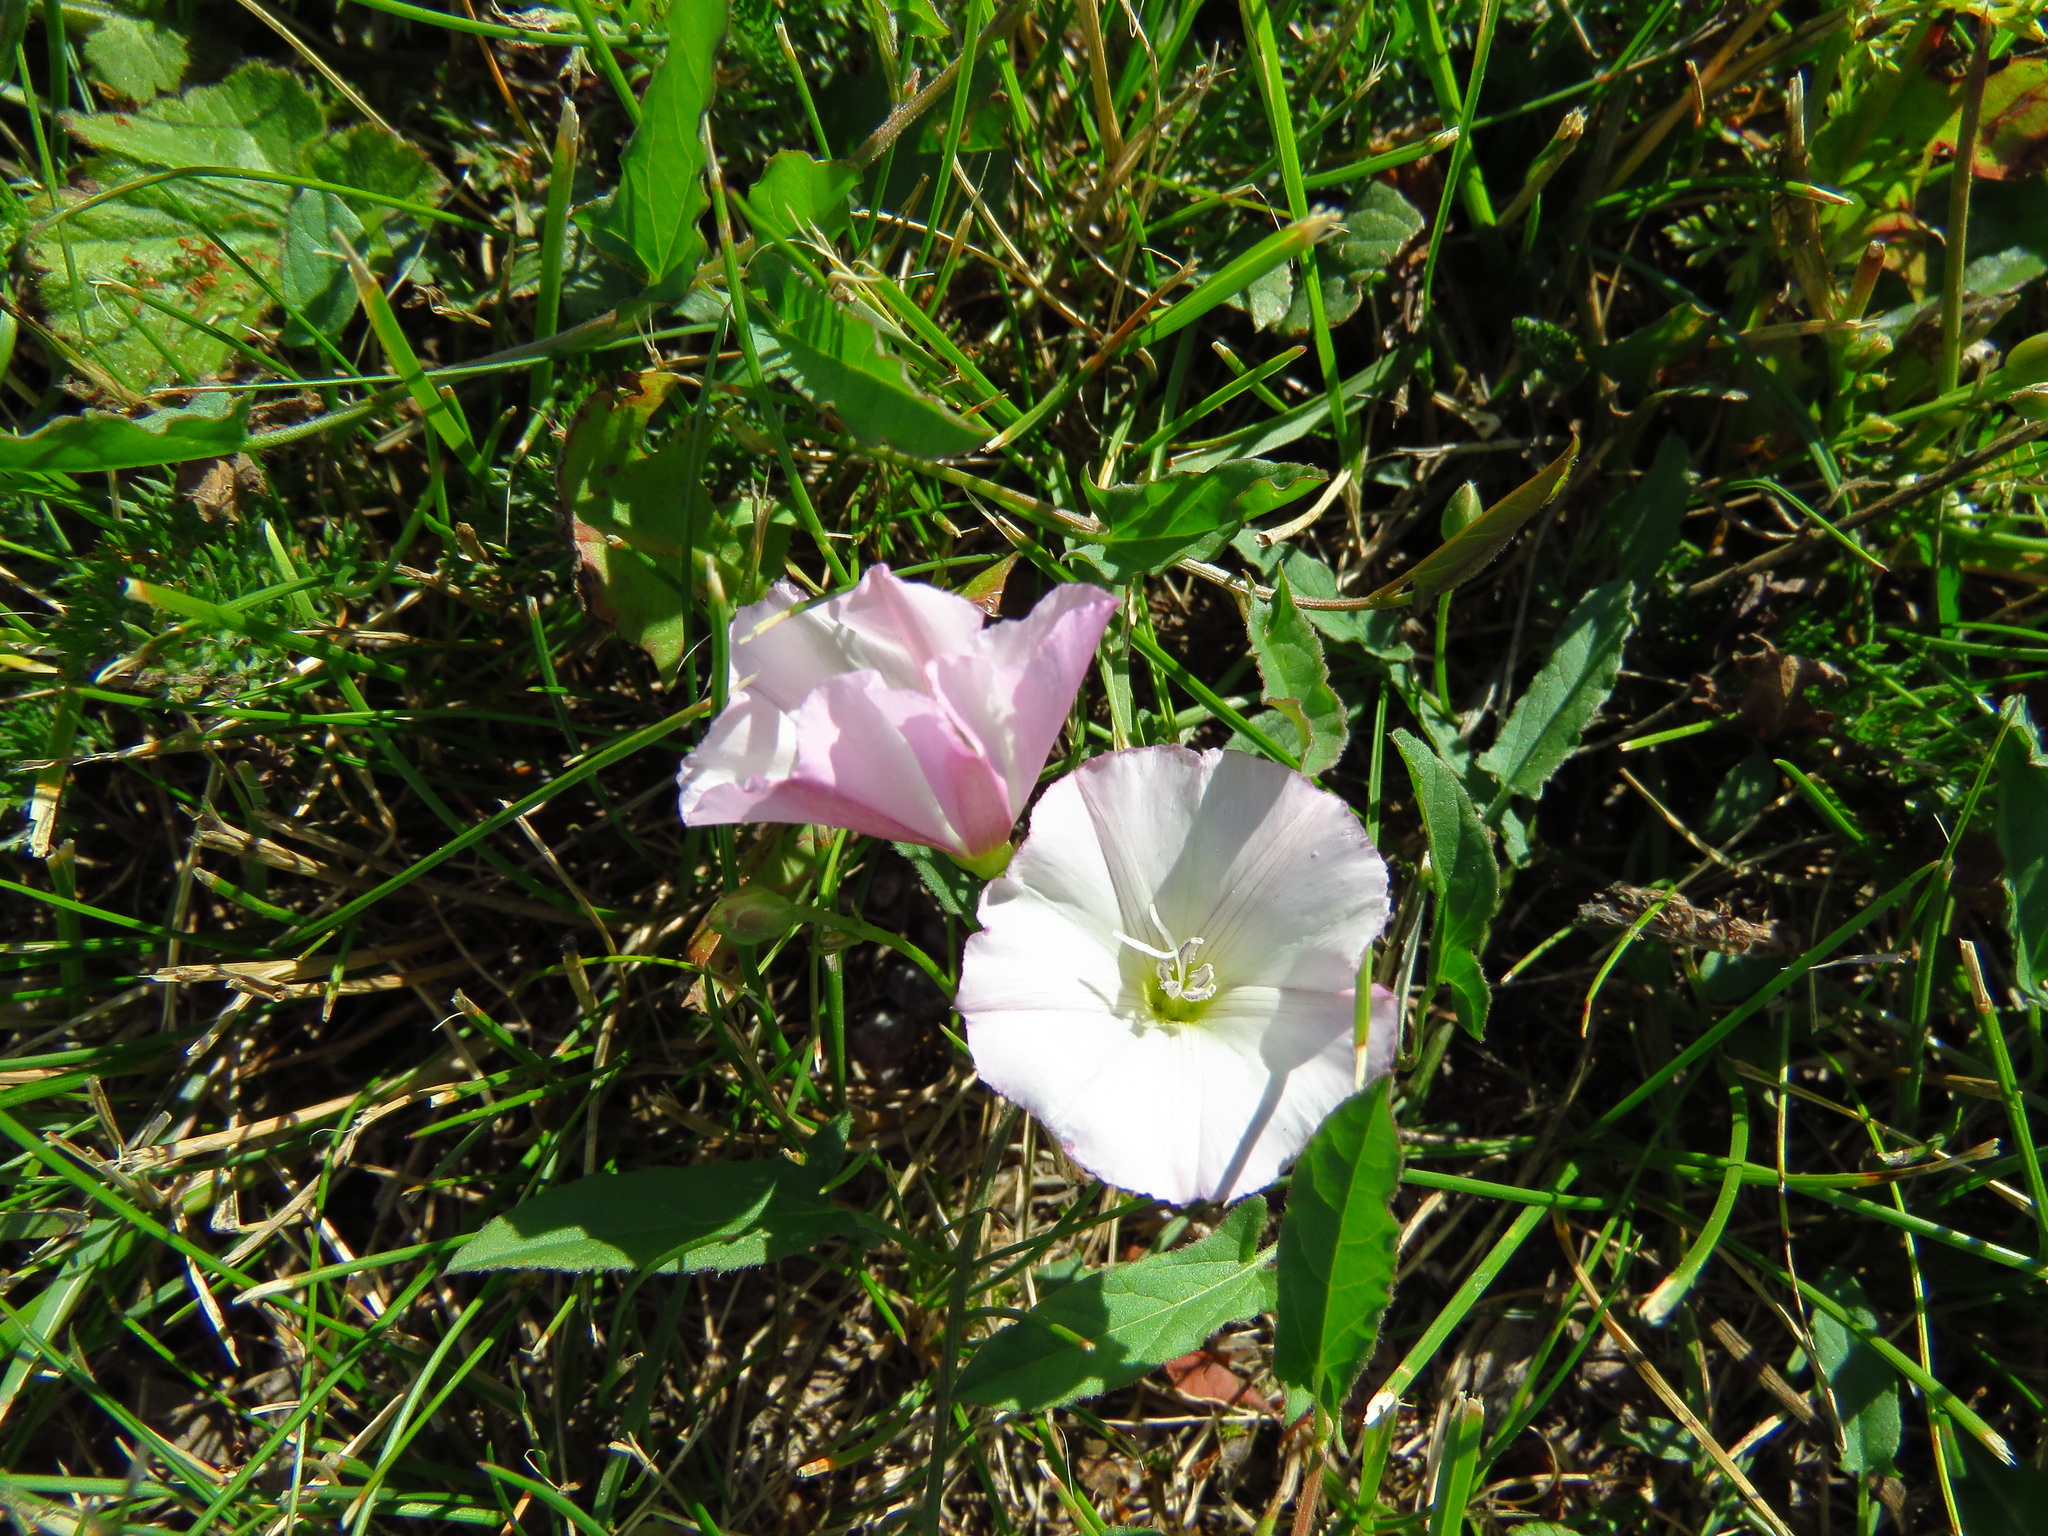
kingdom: Plantae
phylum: Tracheophyta
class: Magnoliopsida
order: Solanales
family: Convolvulaceae
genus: Convolvulus
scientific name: Convolvulus arvensis
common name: Field bindweed
